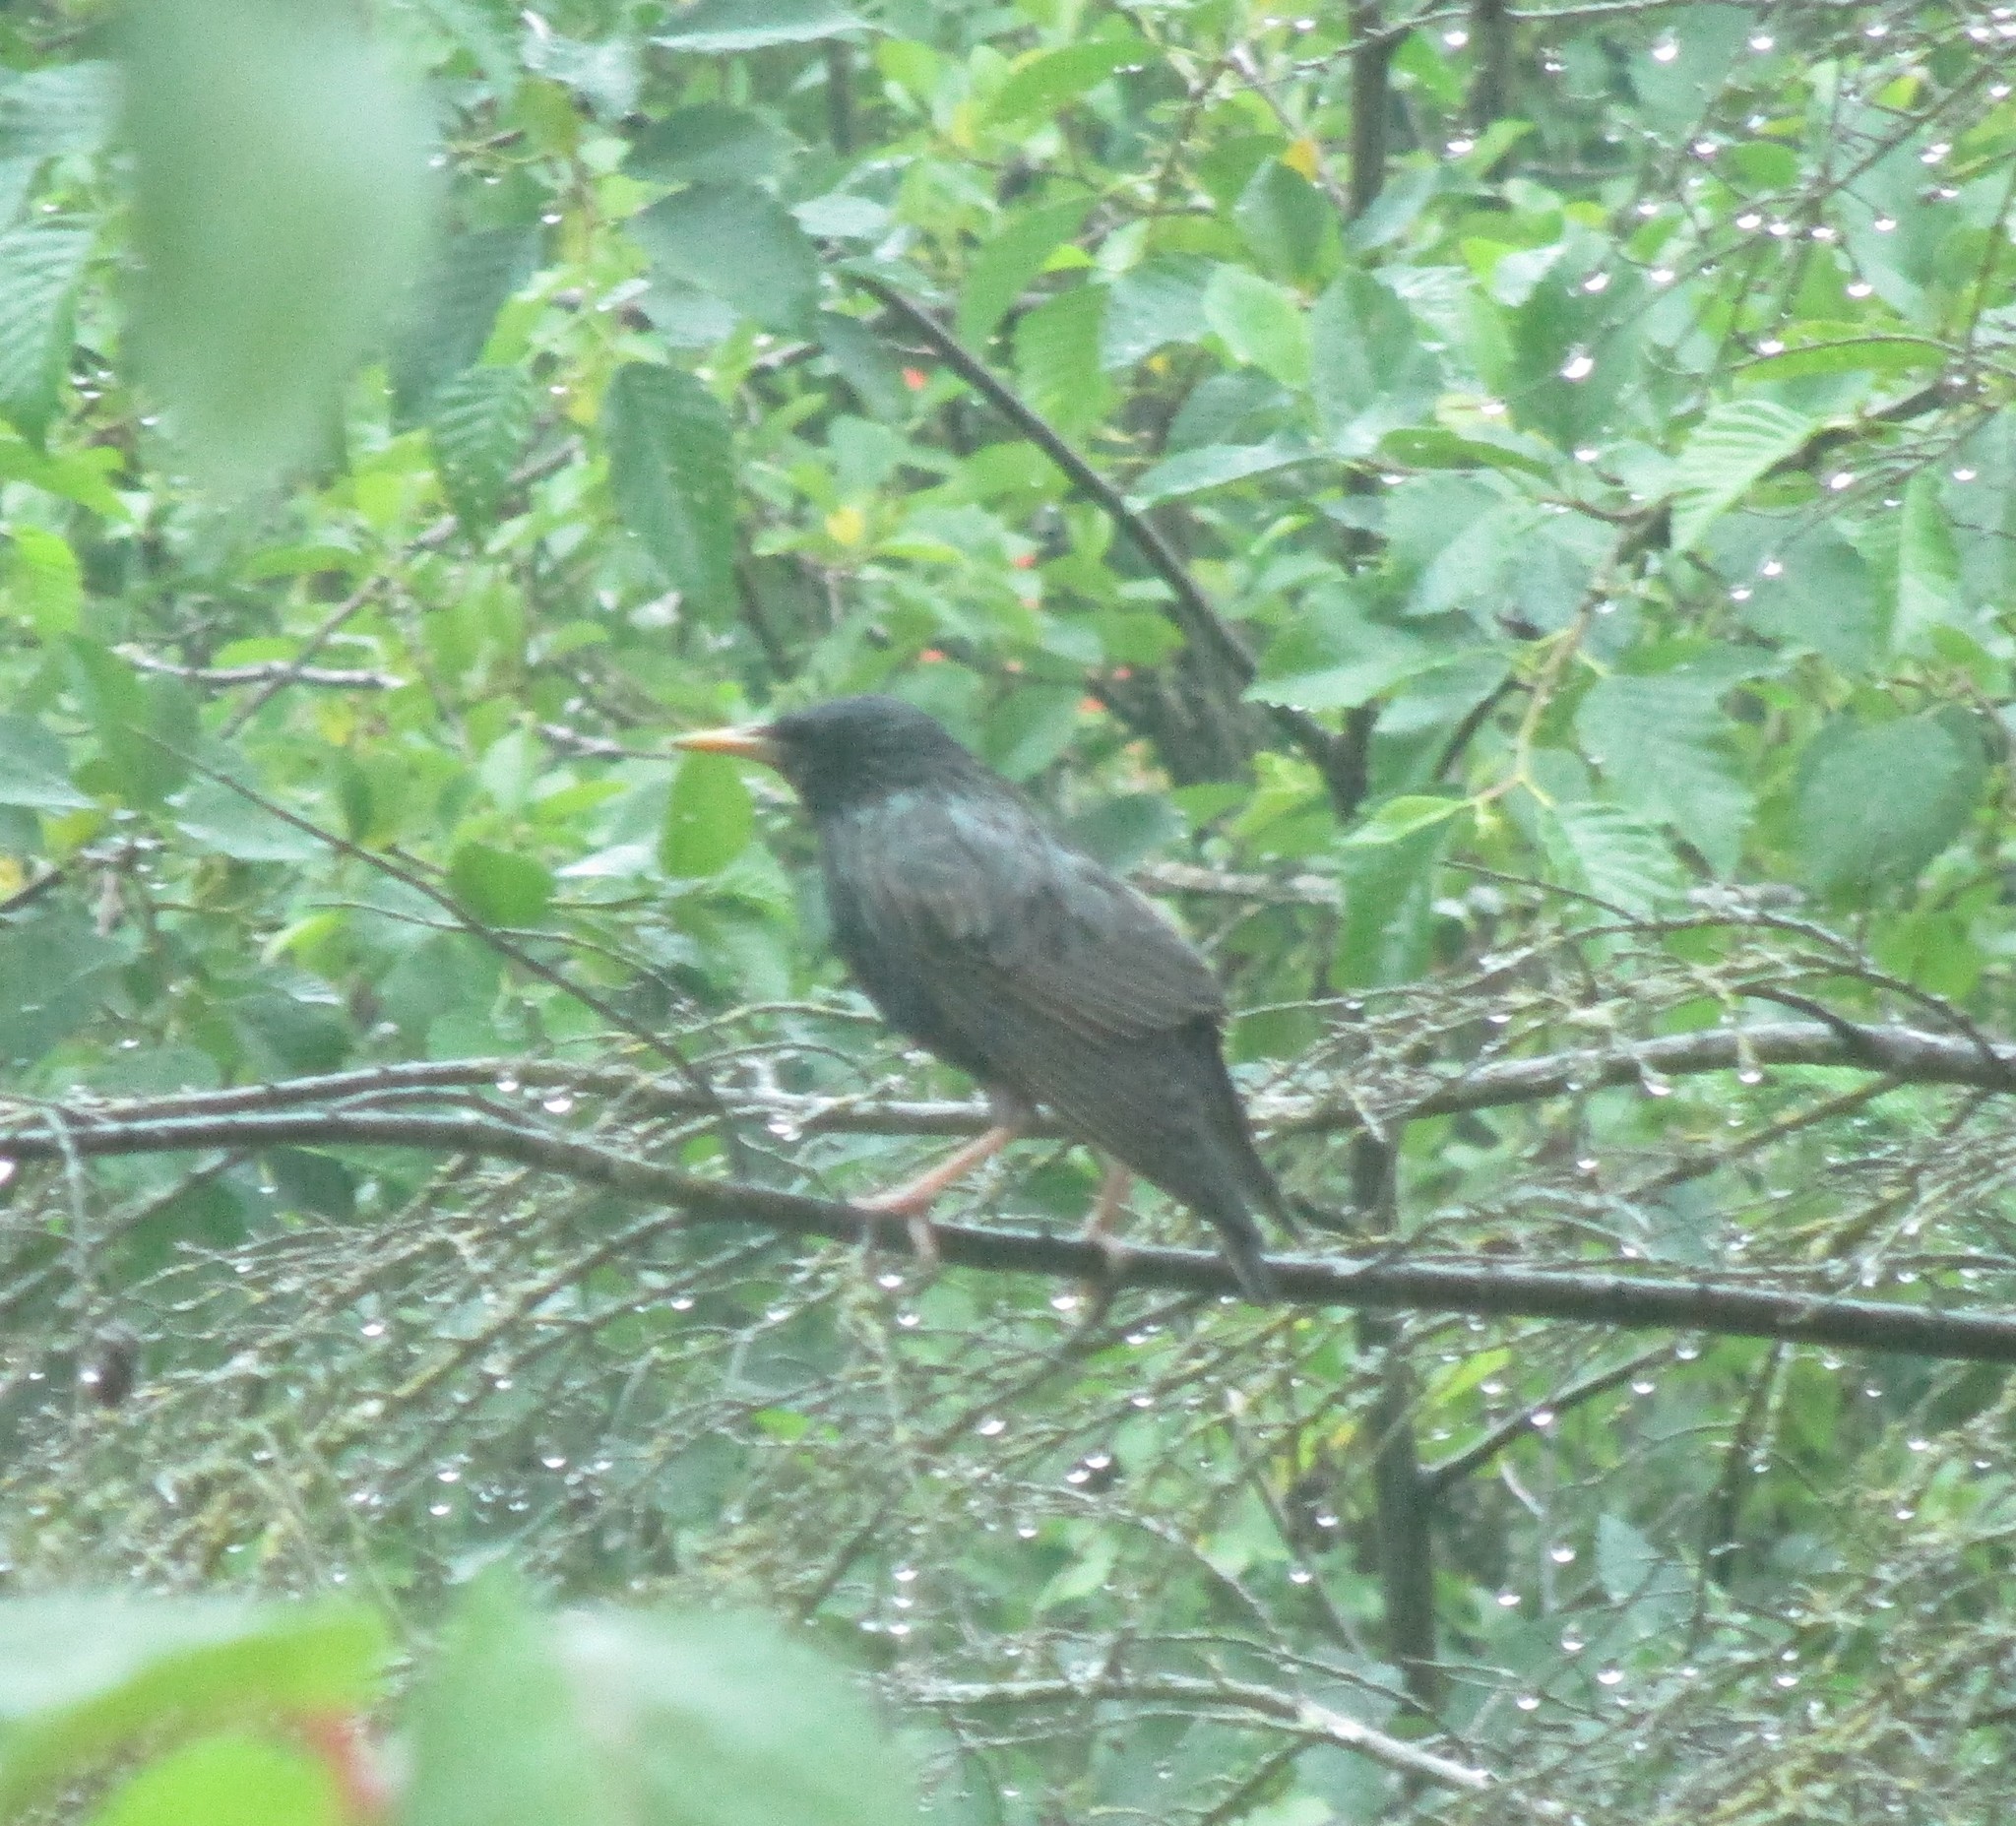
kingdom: Animalia
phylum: Chordata
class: Aves
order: Passeriformes
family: Sturnidae
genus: Sturnus
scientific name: Sturnus vulgaris
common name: Common starling
